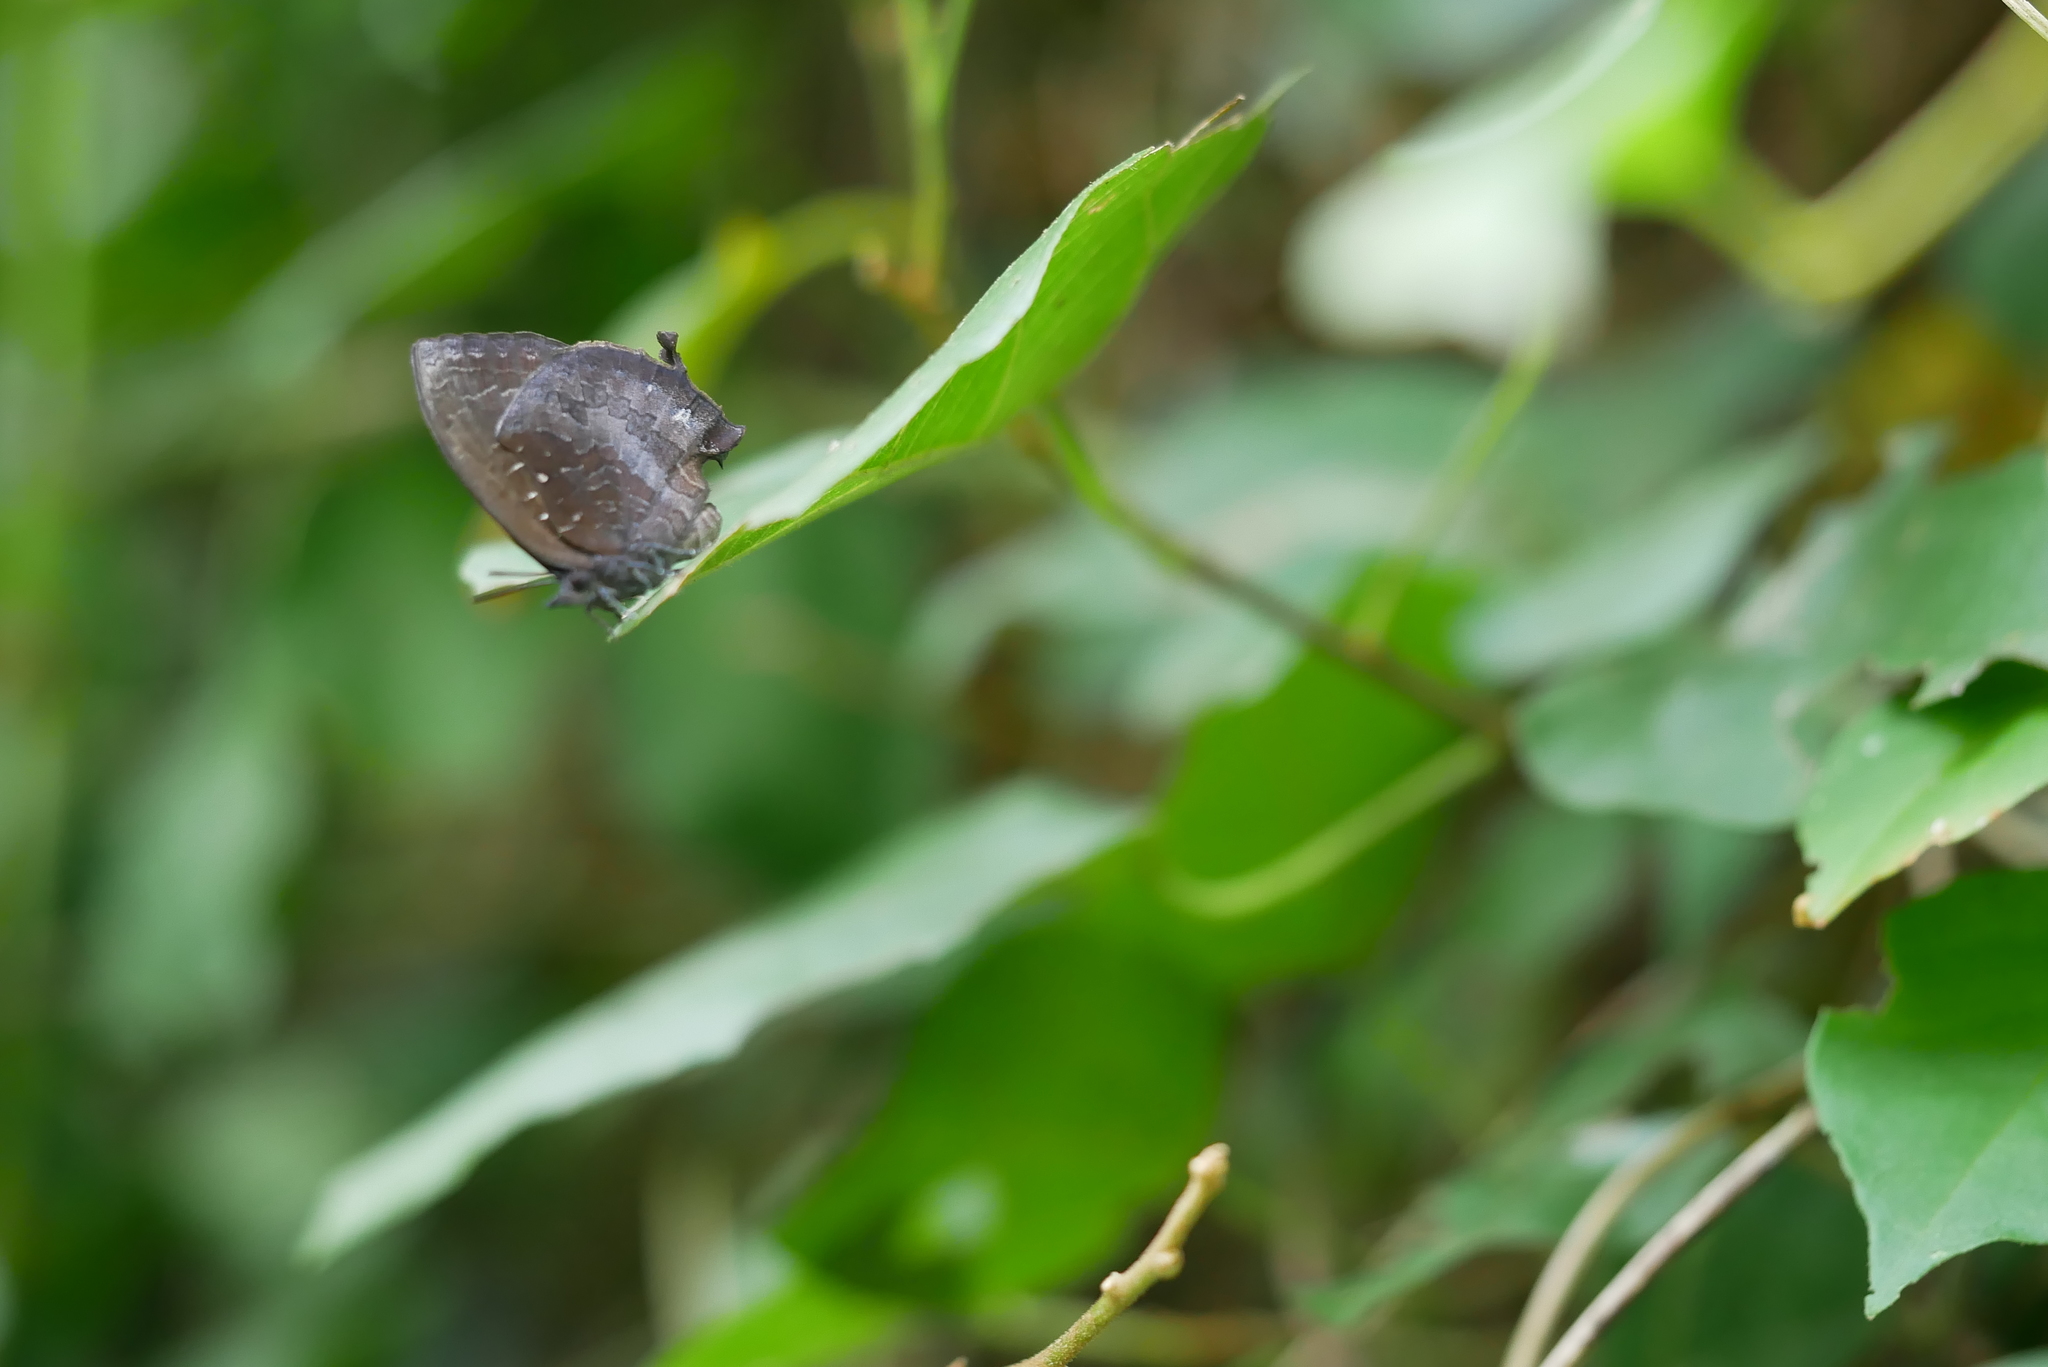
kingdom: Animalia
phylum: Arthropoda
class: Insecta
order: Lepidoptera
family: Lycaenidae
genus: Mahathala
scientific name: Mahathala ameria
